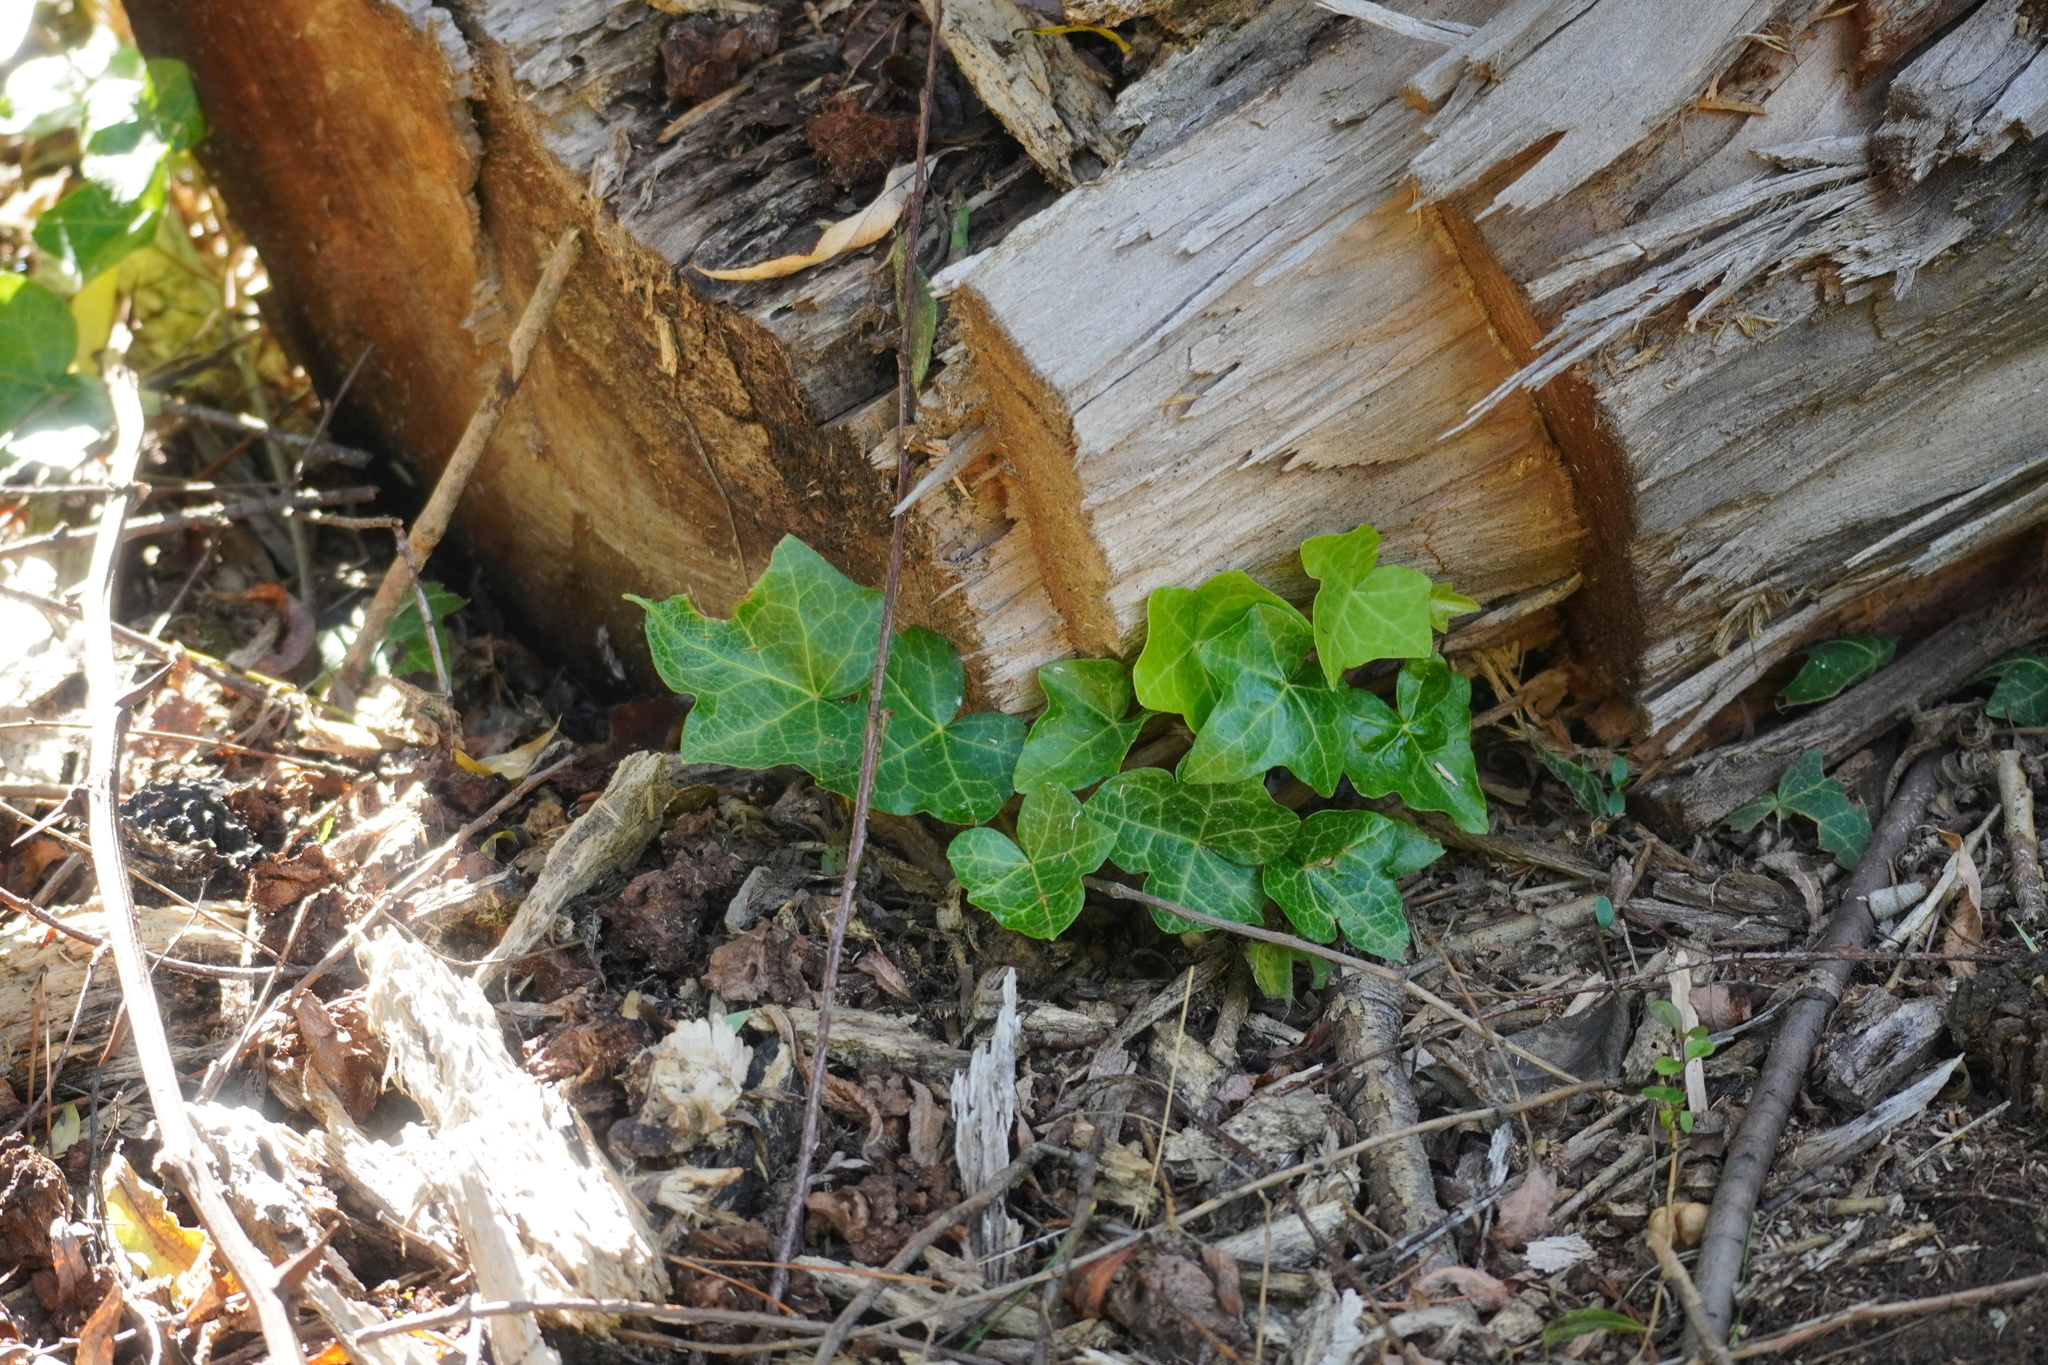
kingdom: Plantae
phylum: Tracheophyta
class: Magnoliopsida
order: Apiales
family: Araliaceae
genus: Hedera
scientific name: Hedera helix
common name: Ivy
